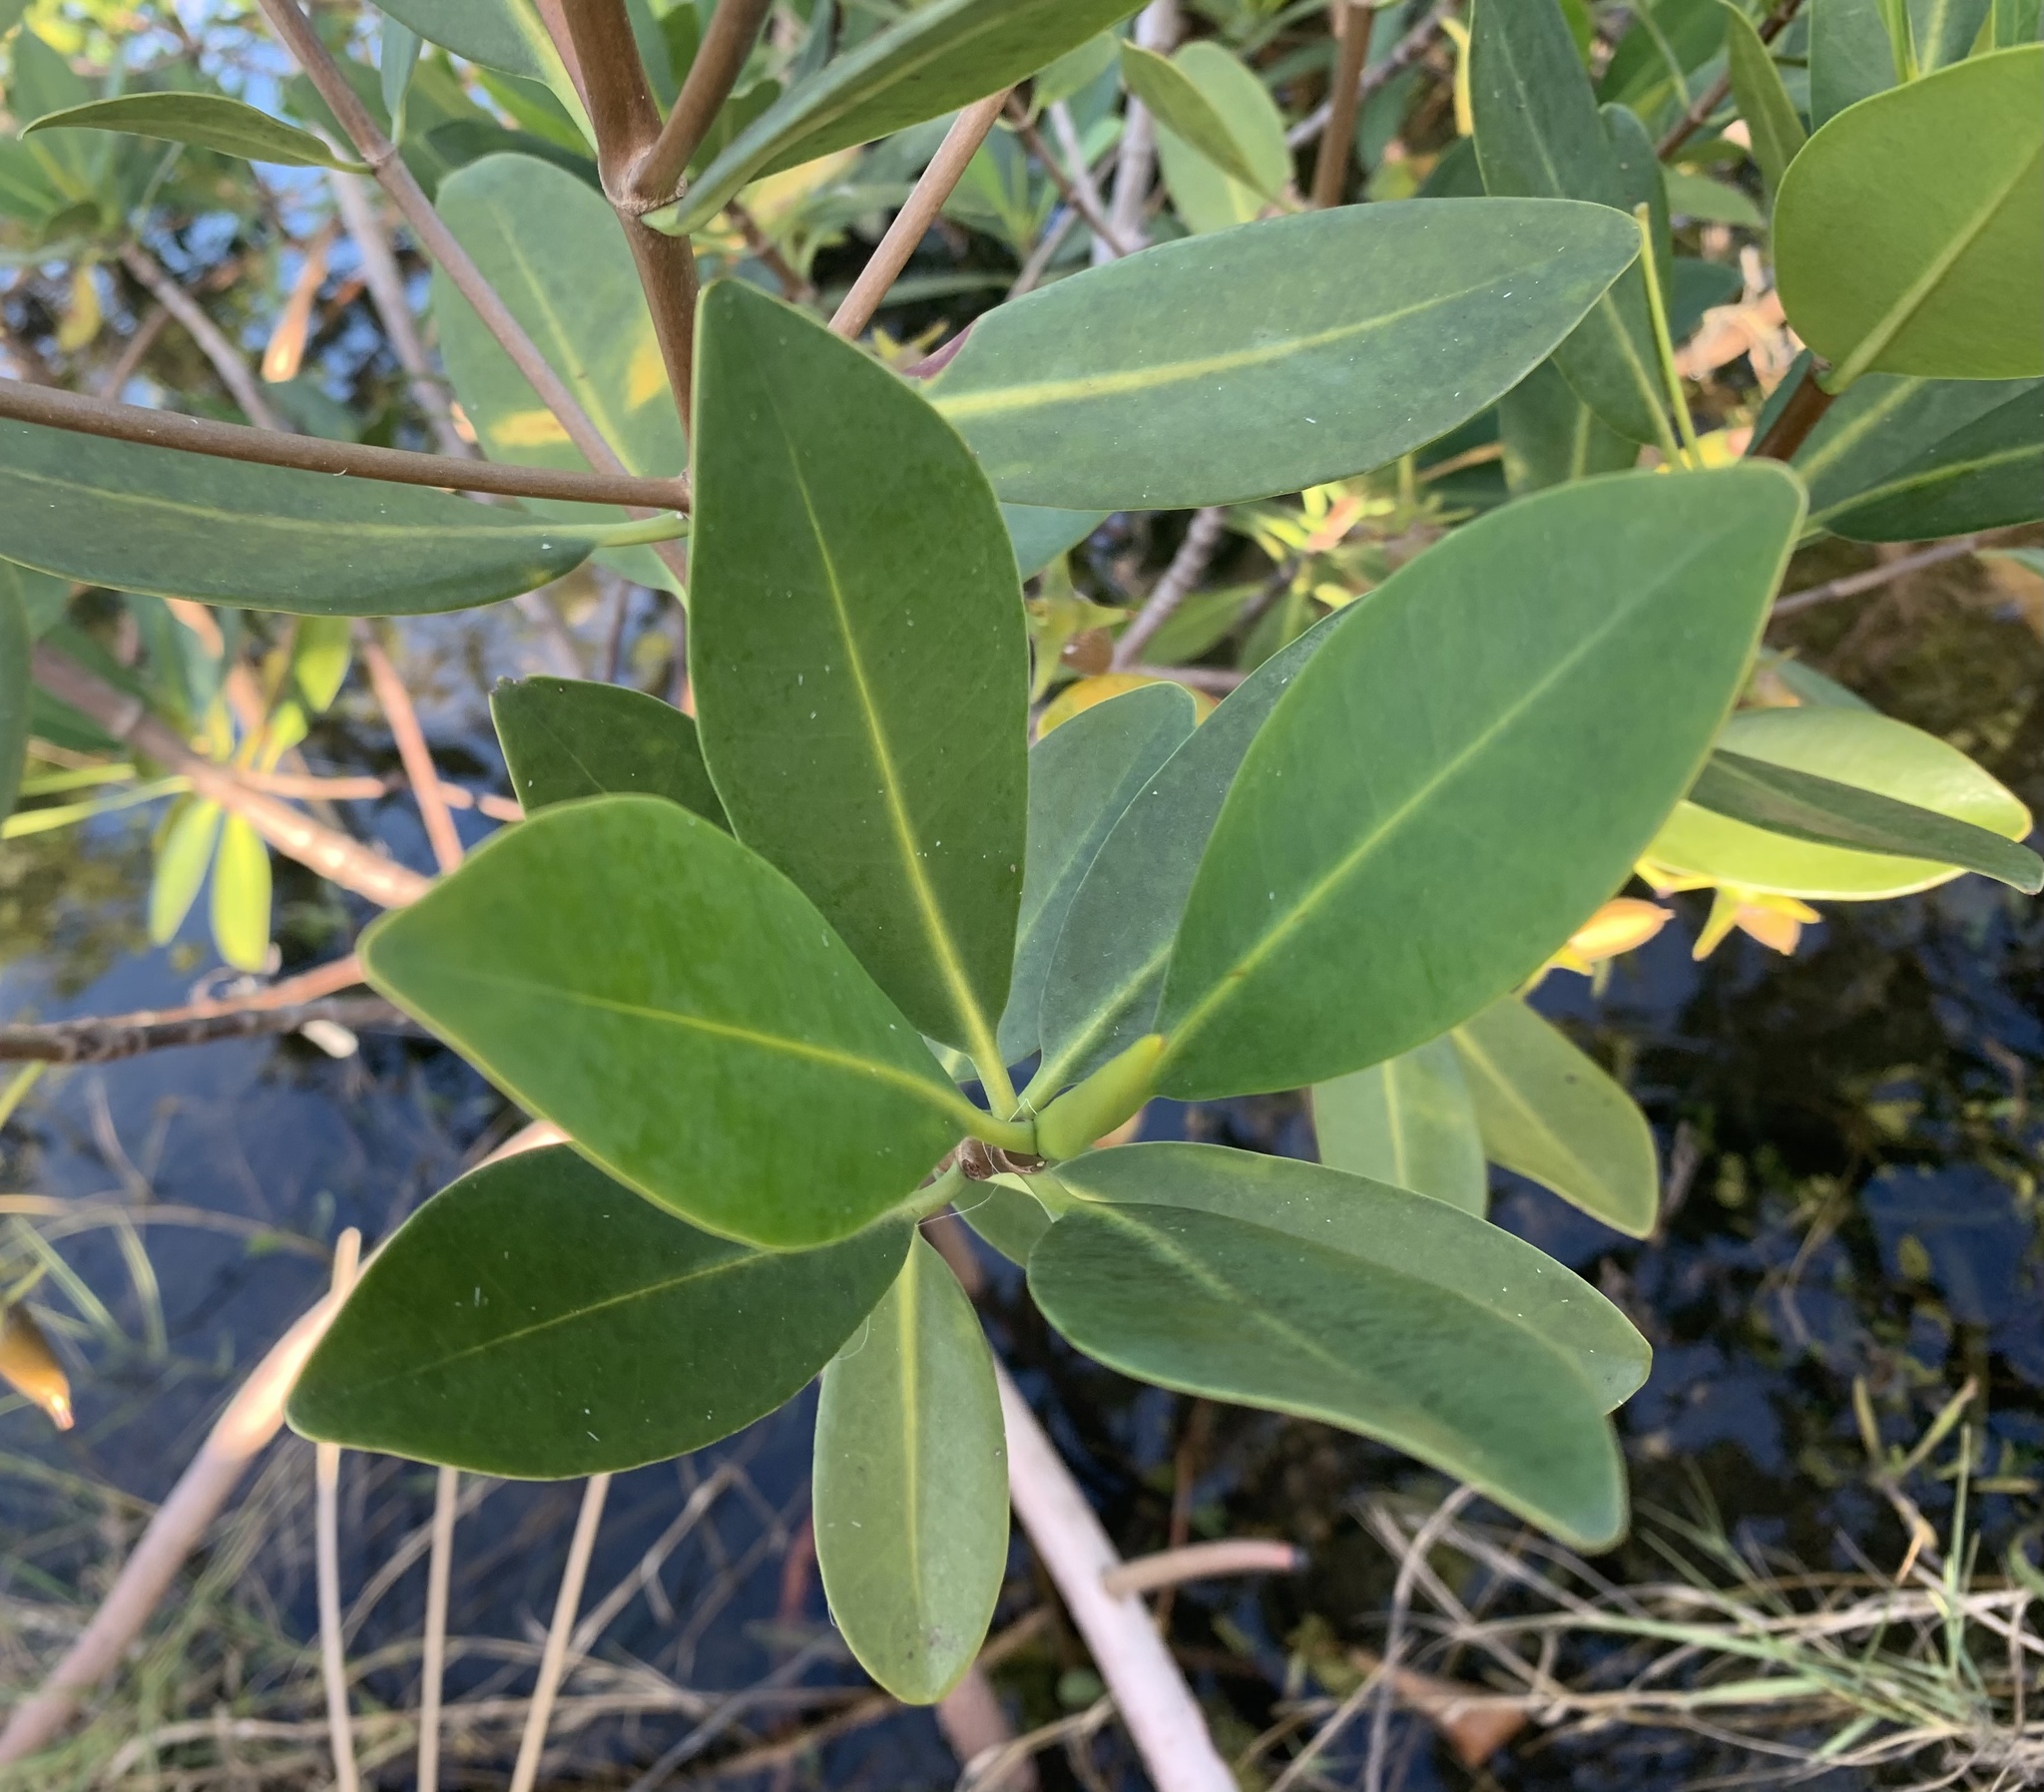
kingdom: Plantae
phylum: Tracheophyta
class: Magnoliopsida
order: Malpighiales
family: Rhizophoraceae
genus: Rhizophora
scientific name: Rhizophora mangle
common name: Red mangrove
